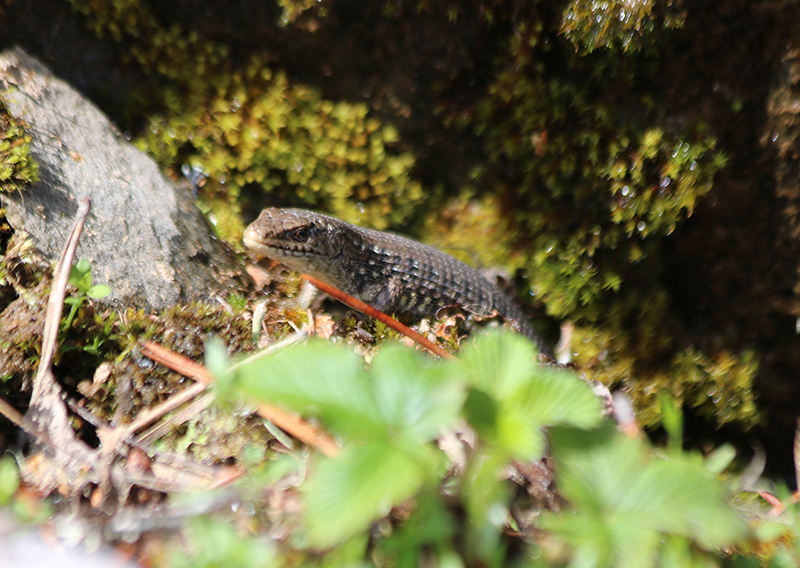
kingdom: Animalia
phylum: Chordata
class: Squamata
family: Anguidae
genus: Elgaria
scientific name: Elgaria coerulea
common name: Northern alligator lizard
